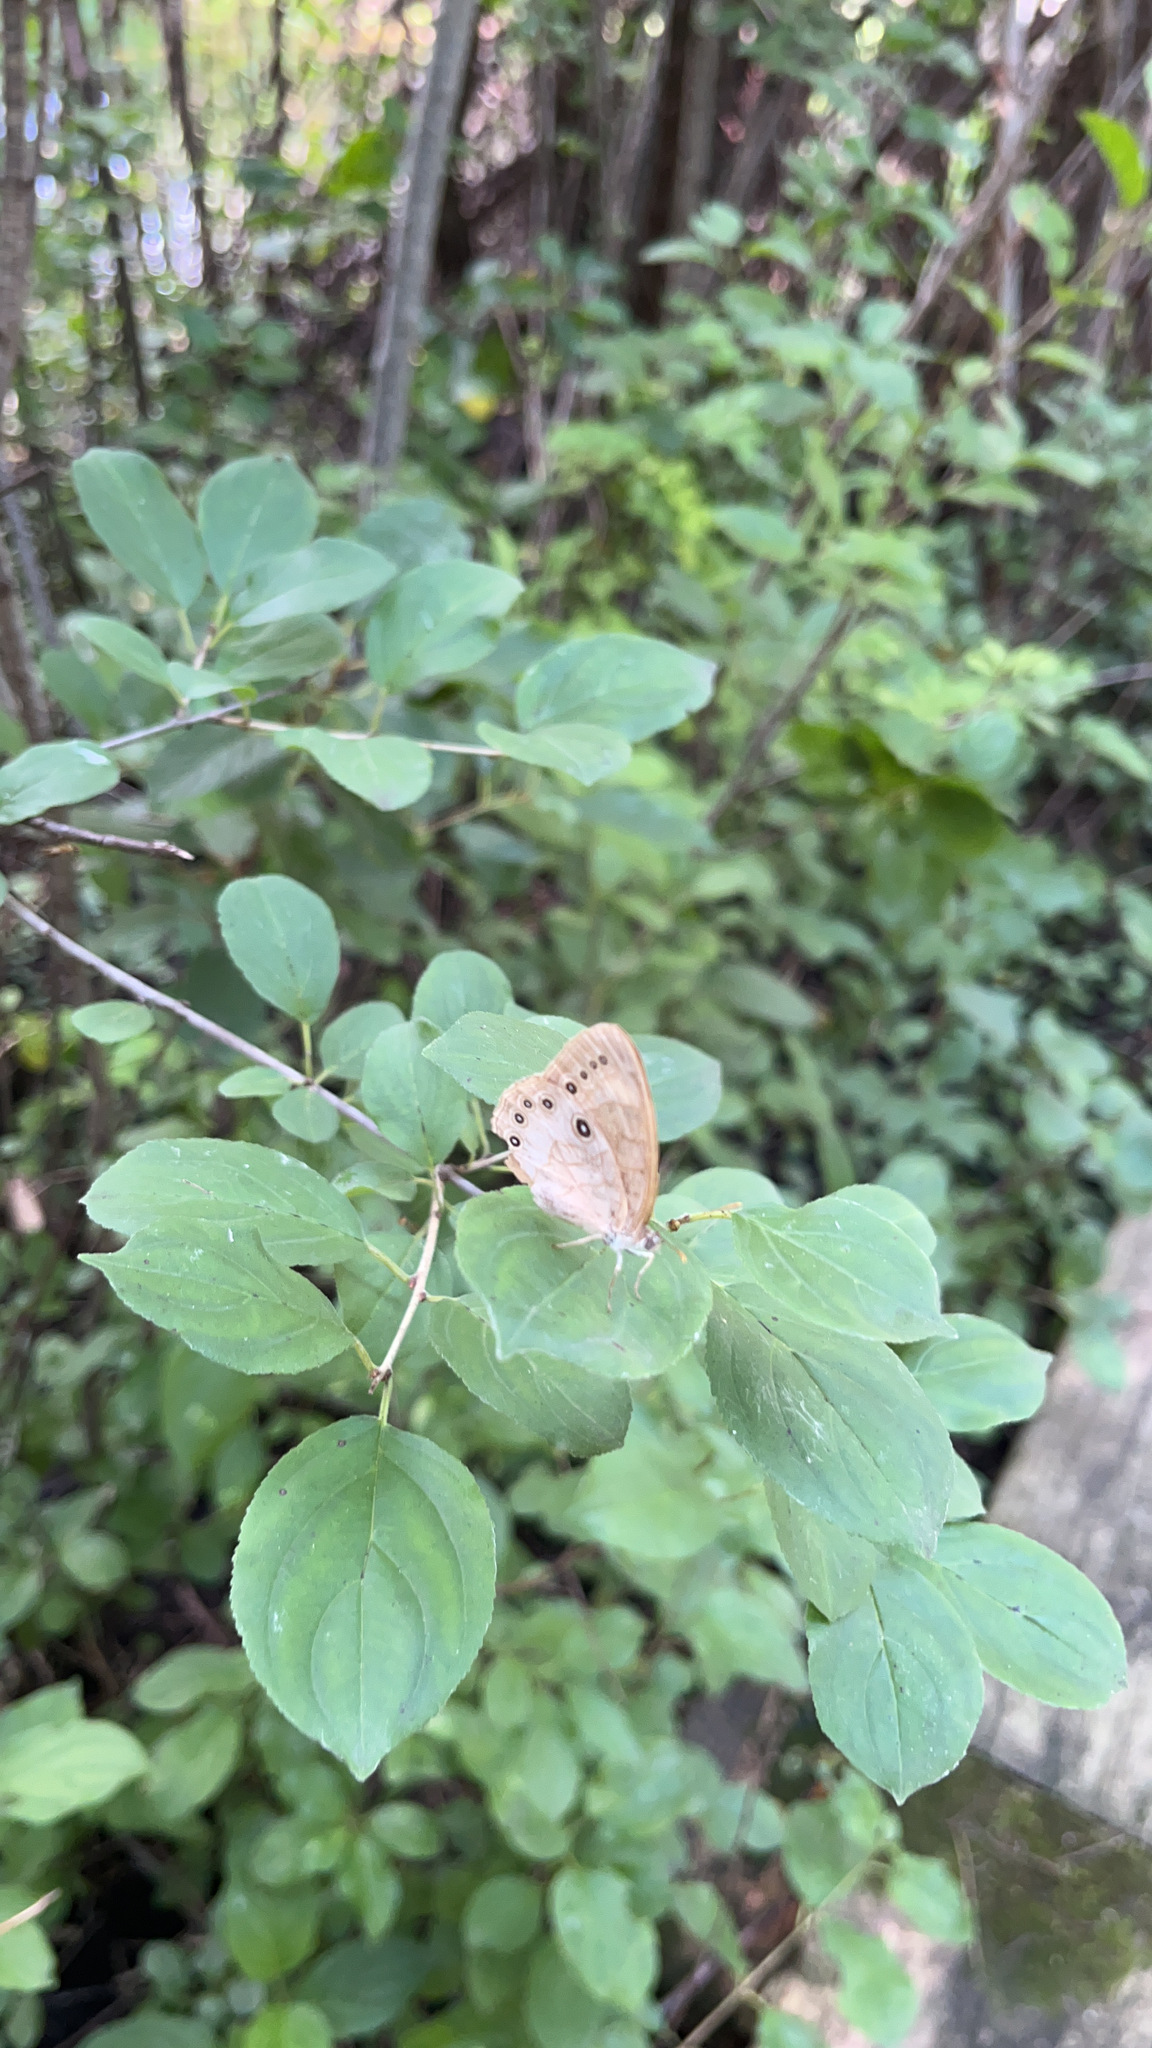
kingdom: Animalia
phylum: Arthropoda
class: Insecta
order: Lepidoptera
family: Nymphalidae
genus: Lethe
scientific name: Lethe eurydice
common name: Eyed brown
